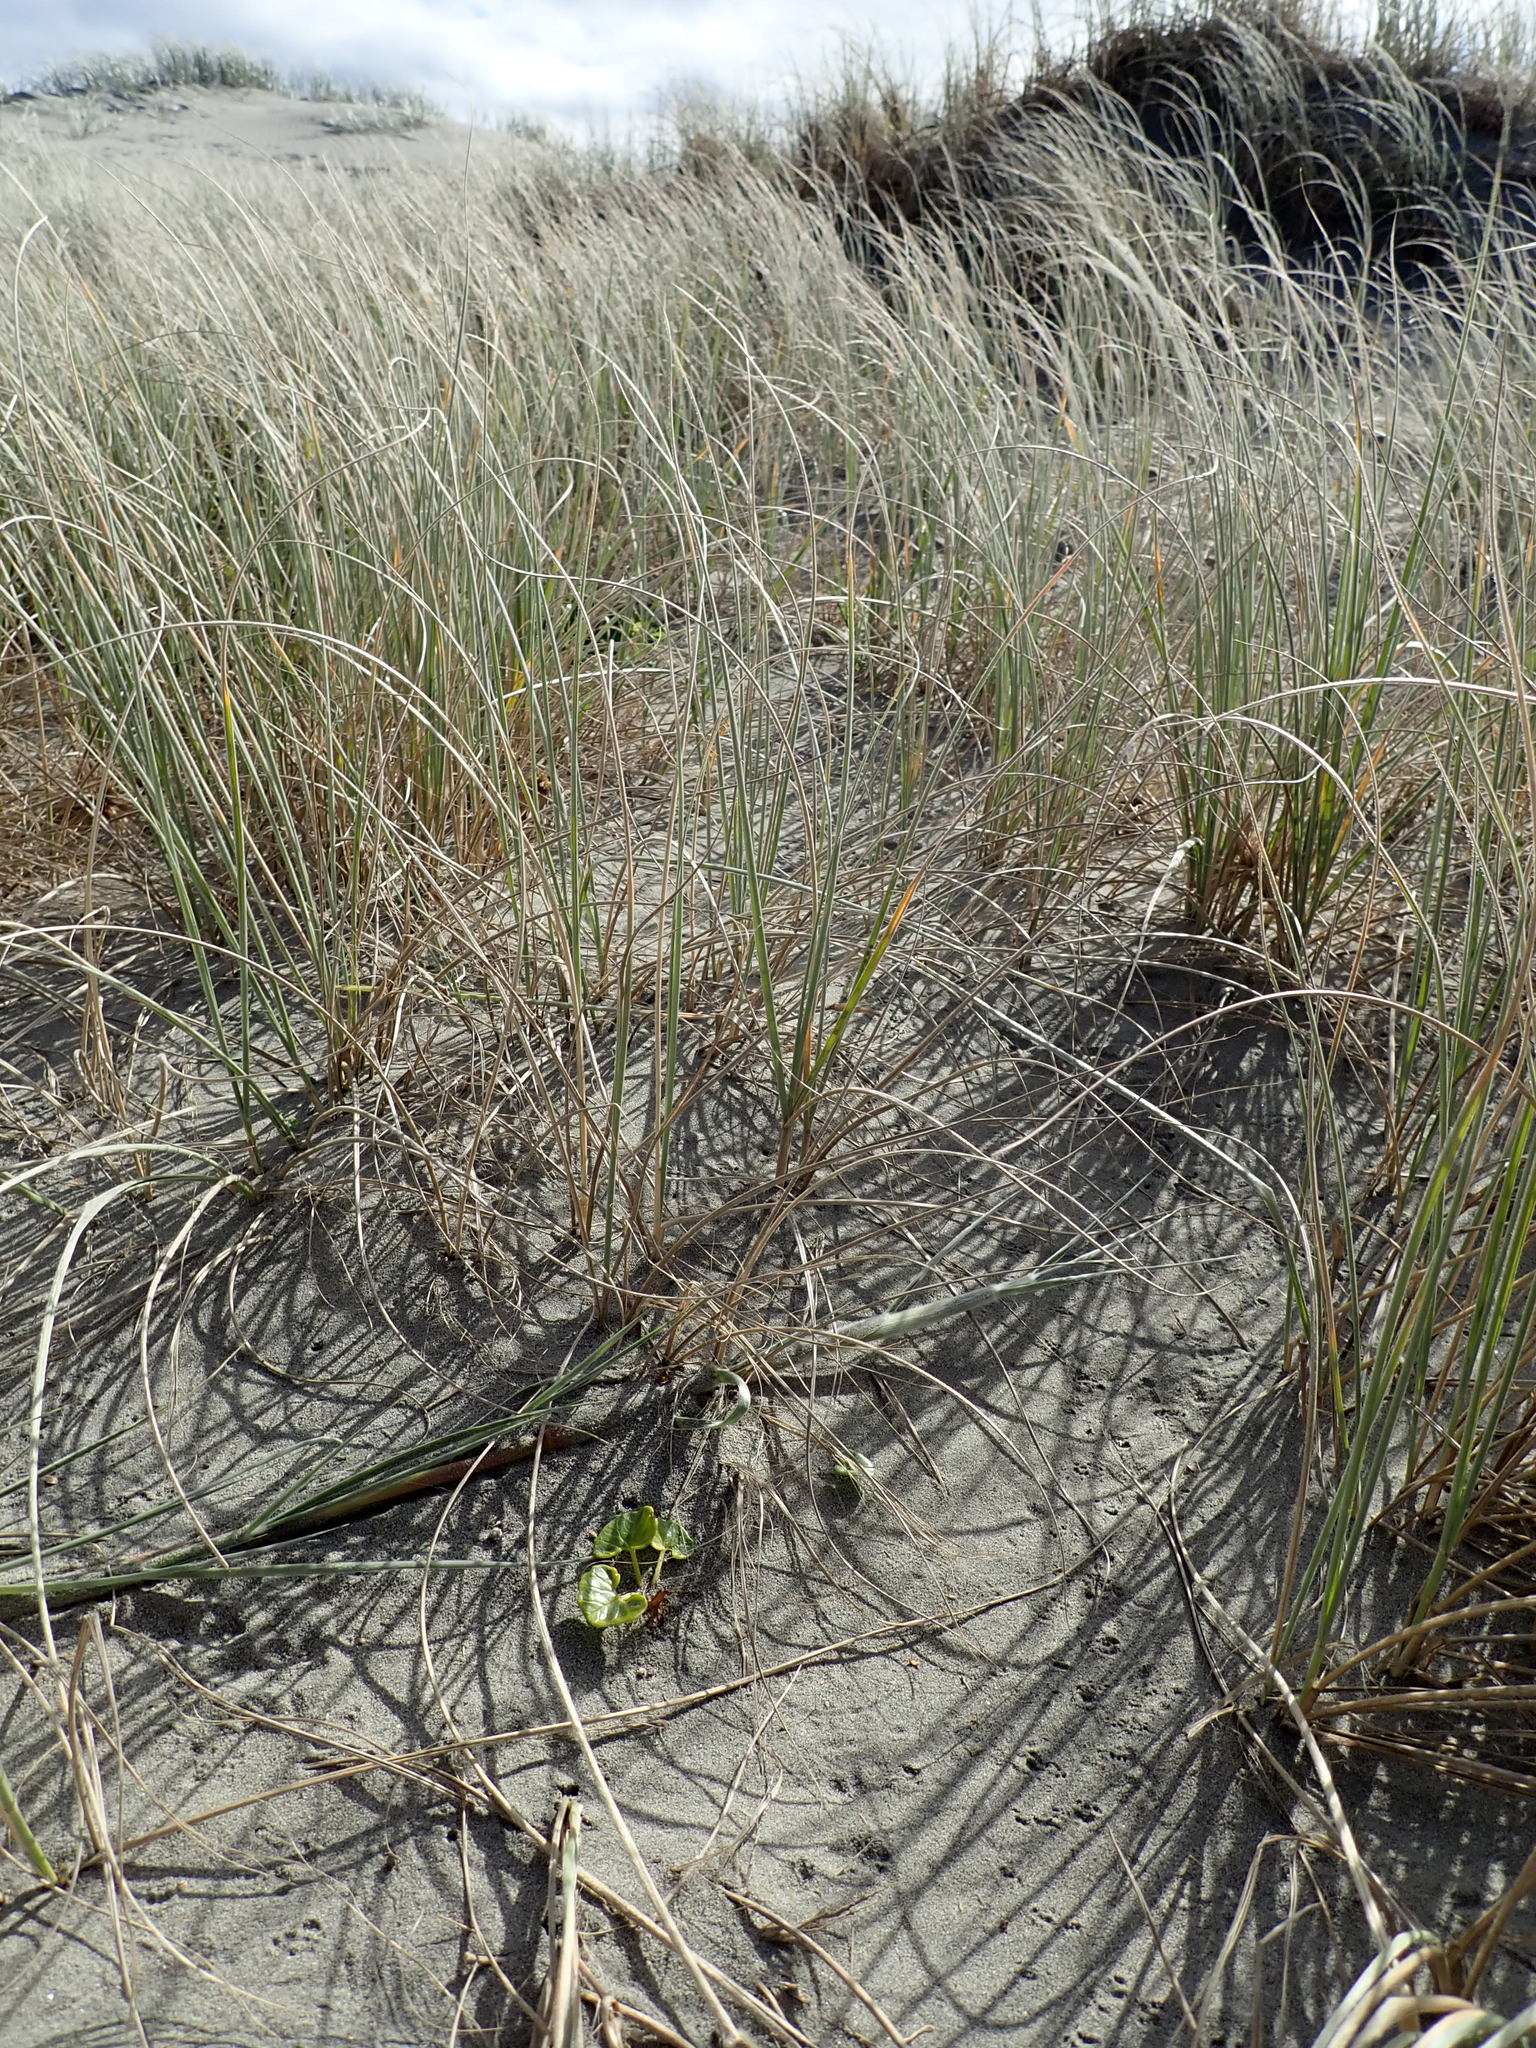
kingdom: Plantae
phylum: Tracheophyta
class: Magnoliopsida
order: Solanales
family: Convolvulaceae
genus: Calystegia
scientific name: Calystegia soldanella
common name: Sea bindweed
